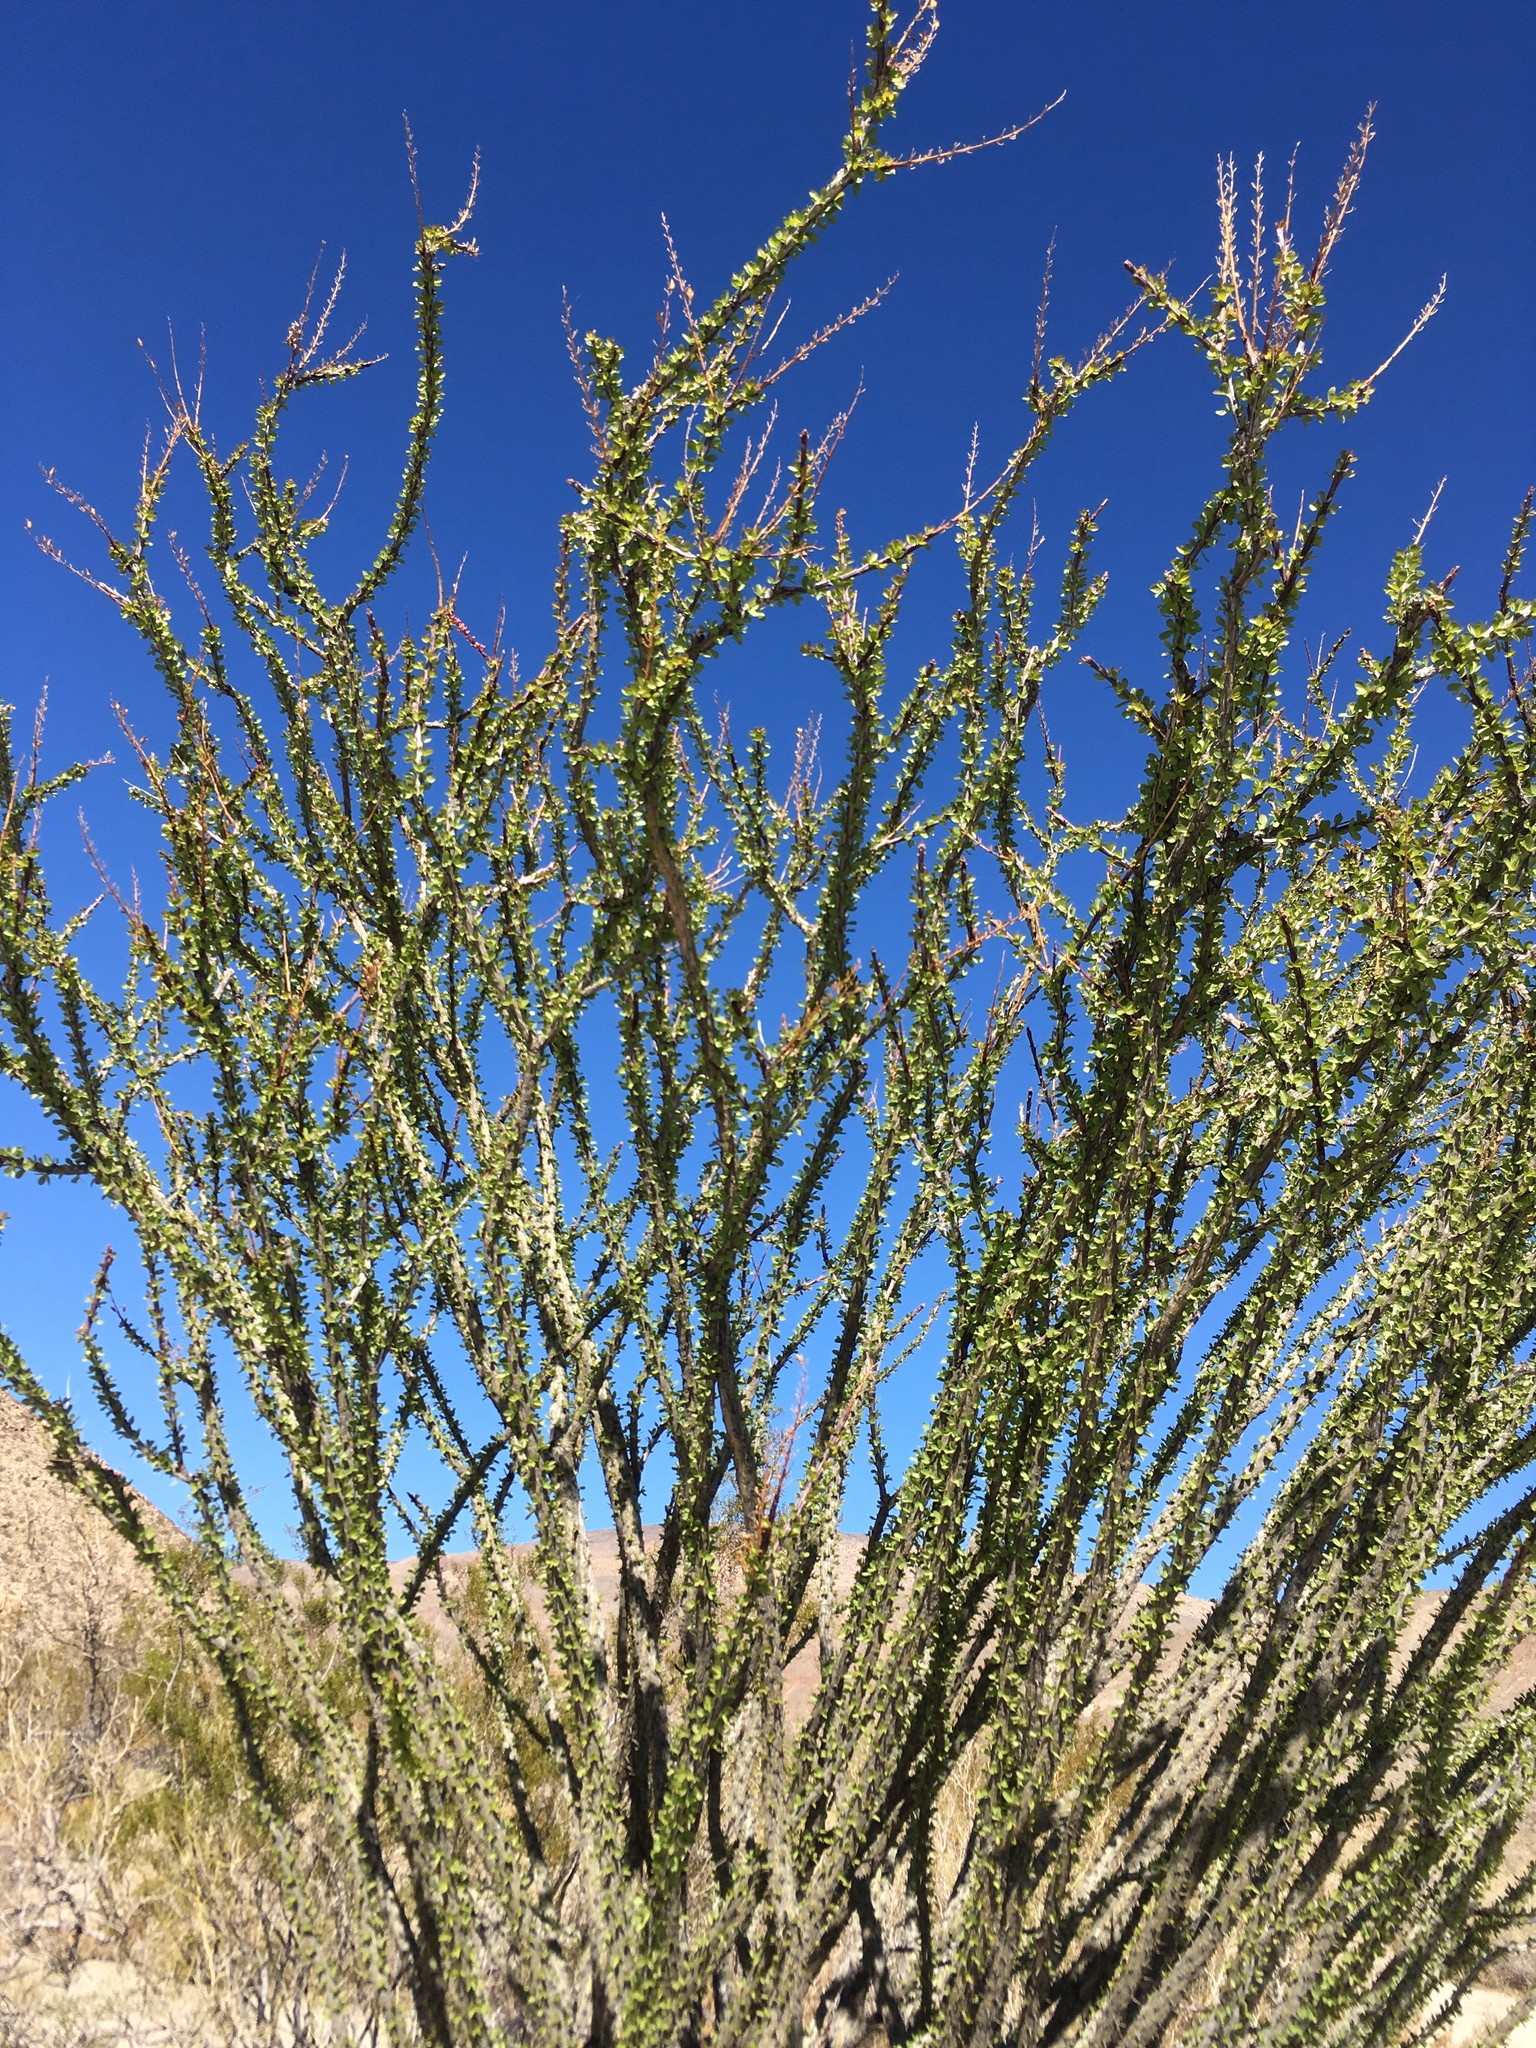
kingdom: Plantae
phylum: Tracheophyta
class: Magnoliopsida
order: Ericales
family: Fouquieriaceae
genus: Fouquieria
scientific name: Fouquieria splendens
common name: Vine-cactus
